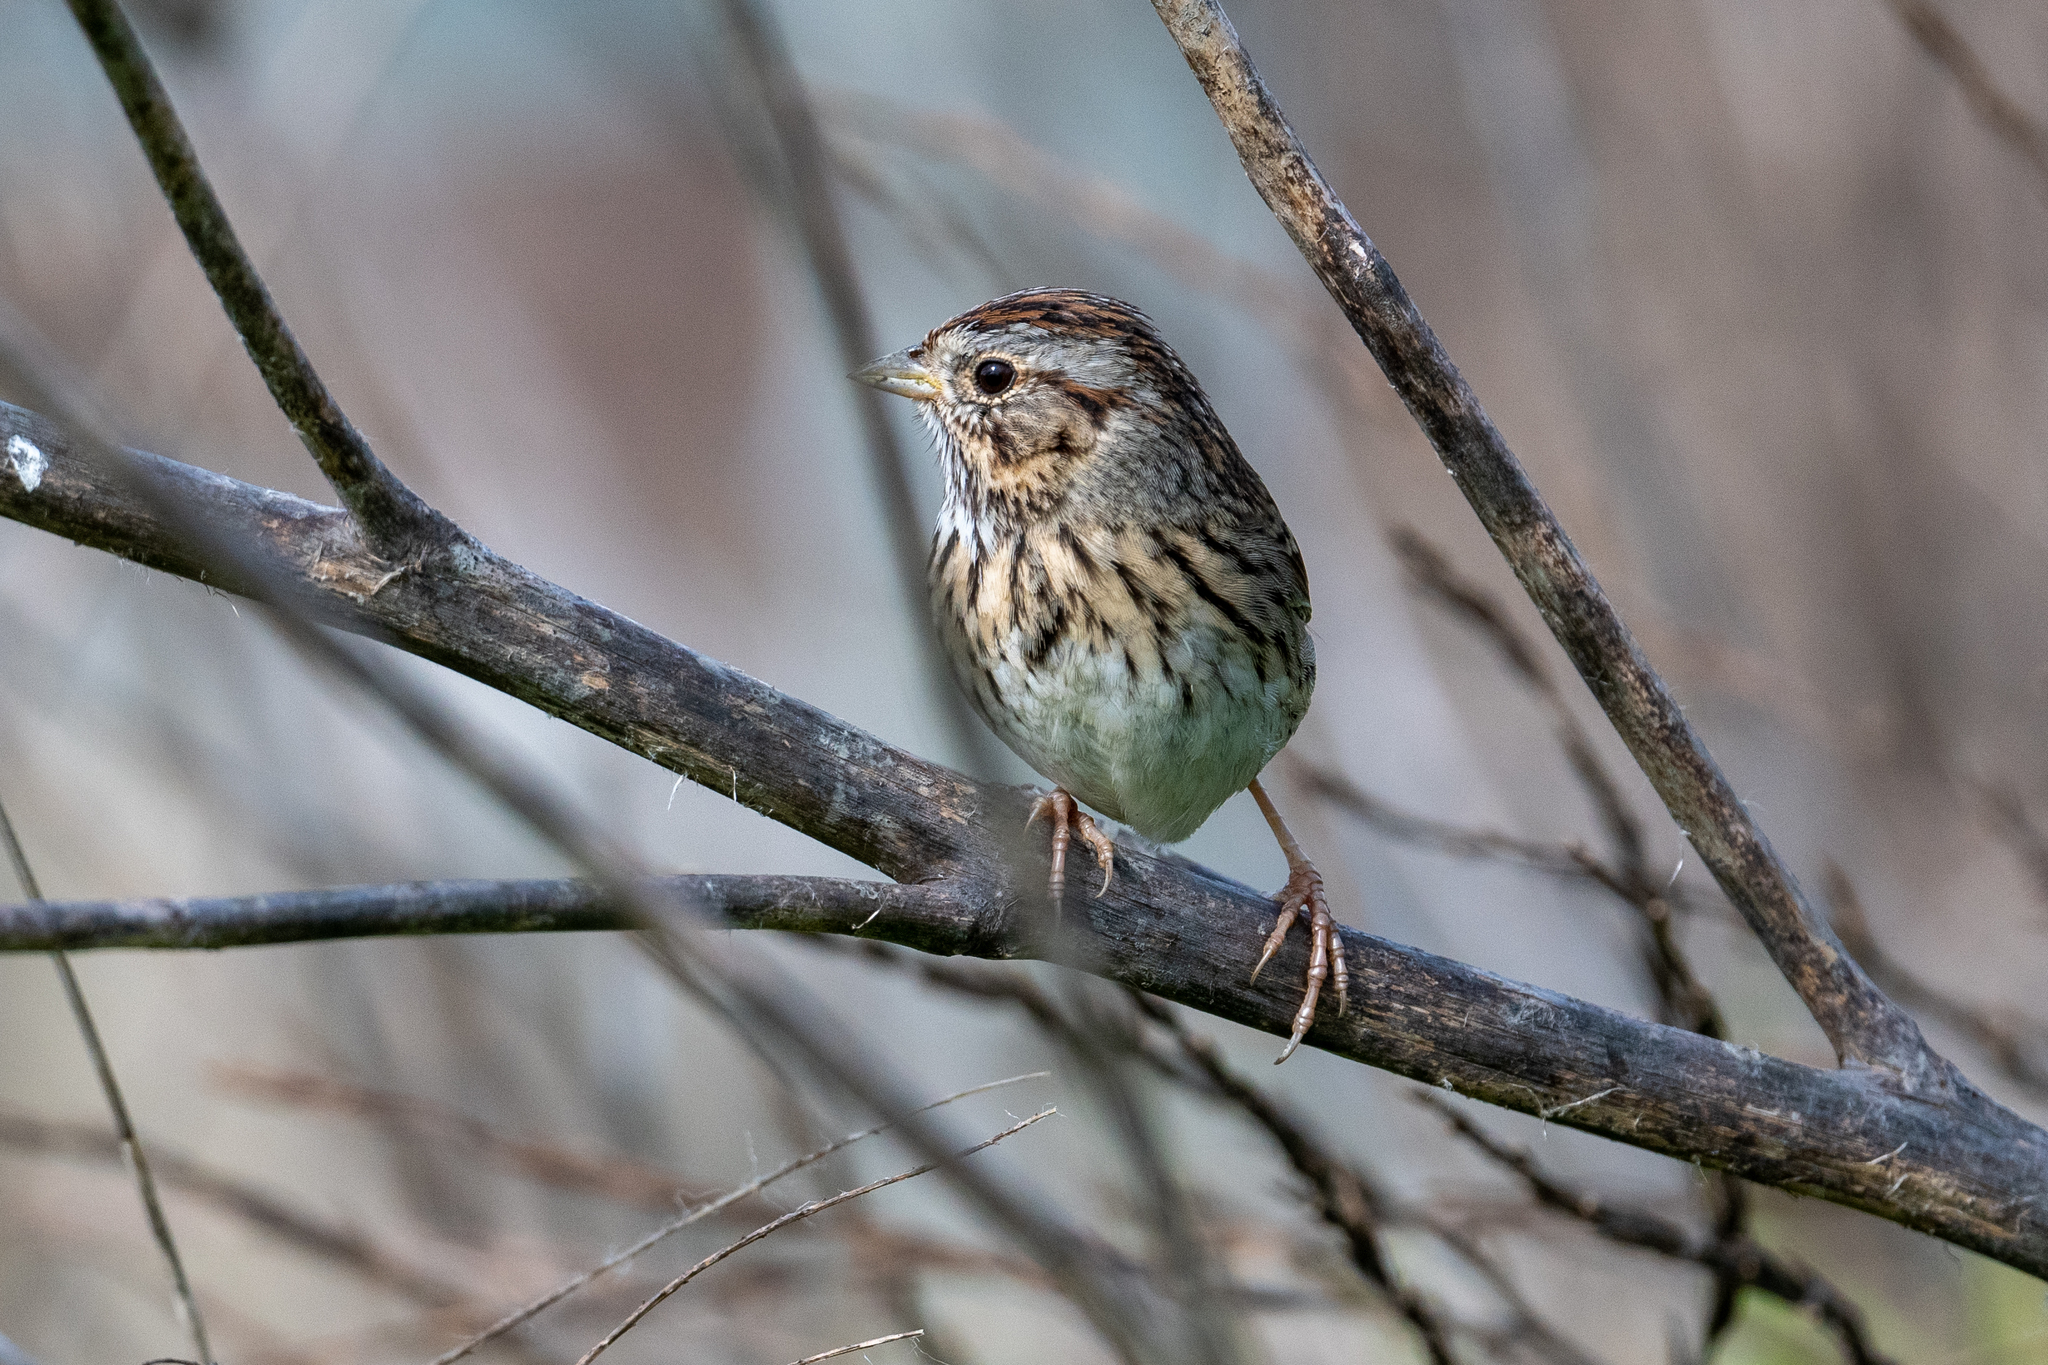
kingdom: Animalia
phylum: Chordata
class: Aves
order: Passeriformes
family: Passerellidae
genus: Melospiza
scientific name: Melospiza lincolnii
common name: Lincoln's sparrow
